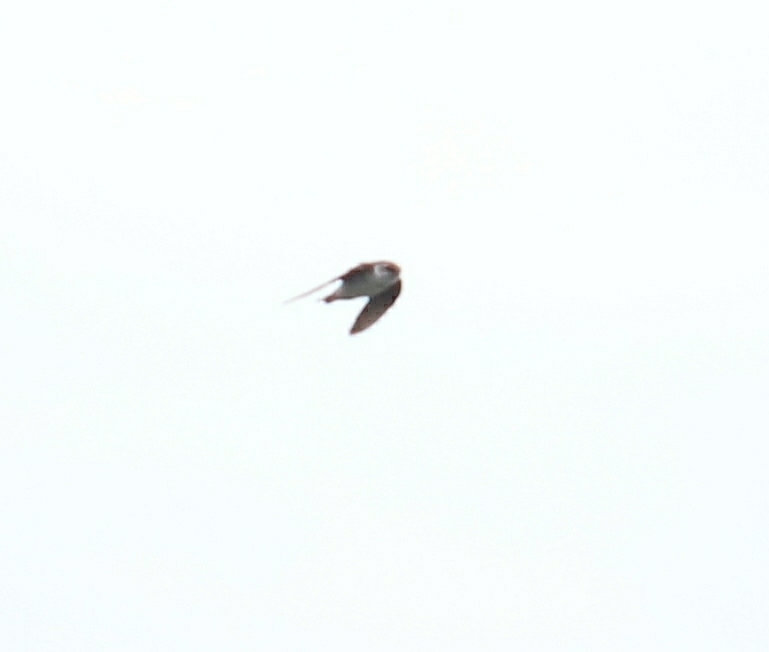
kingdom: Animalia
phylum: Chordata
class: Aves
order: Passeriformes
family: Hirundinidae
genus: Tachycineta
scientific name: Tachycineta thalassina
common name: Violet-green swallow
